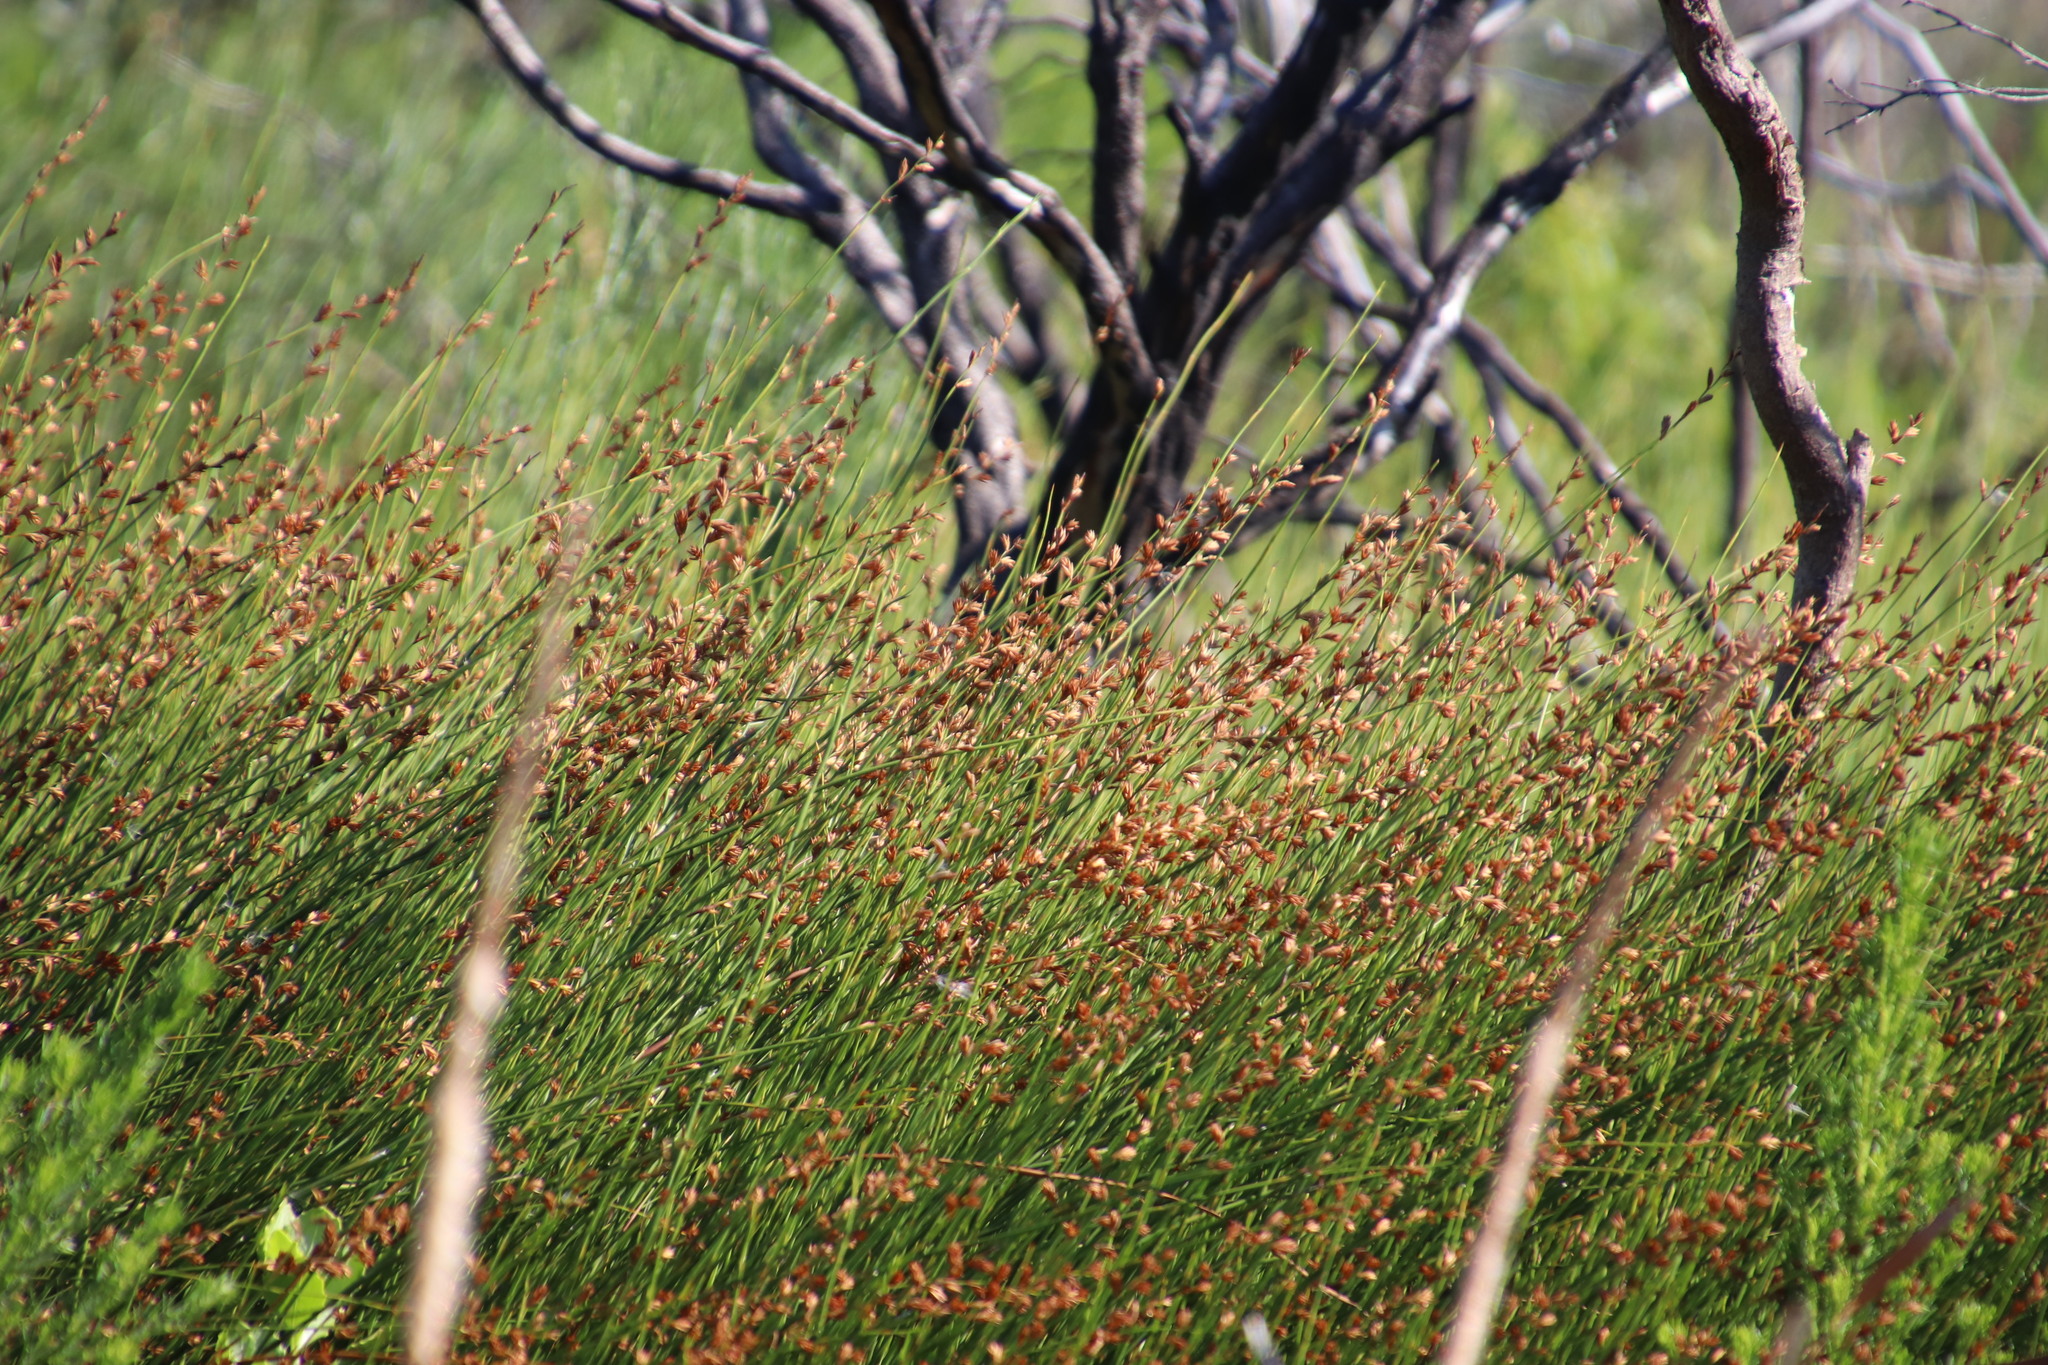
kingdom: Plantae
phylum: Tracheophyta
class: Liliopsida
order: Poales
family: Restionaceae
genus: Platycaulos
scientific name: Platycaulos compressus
